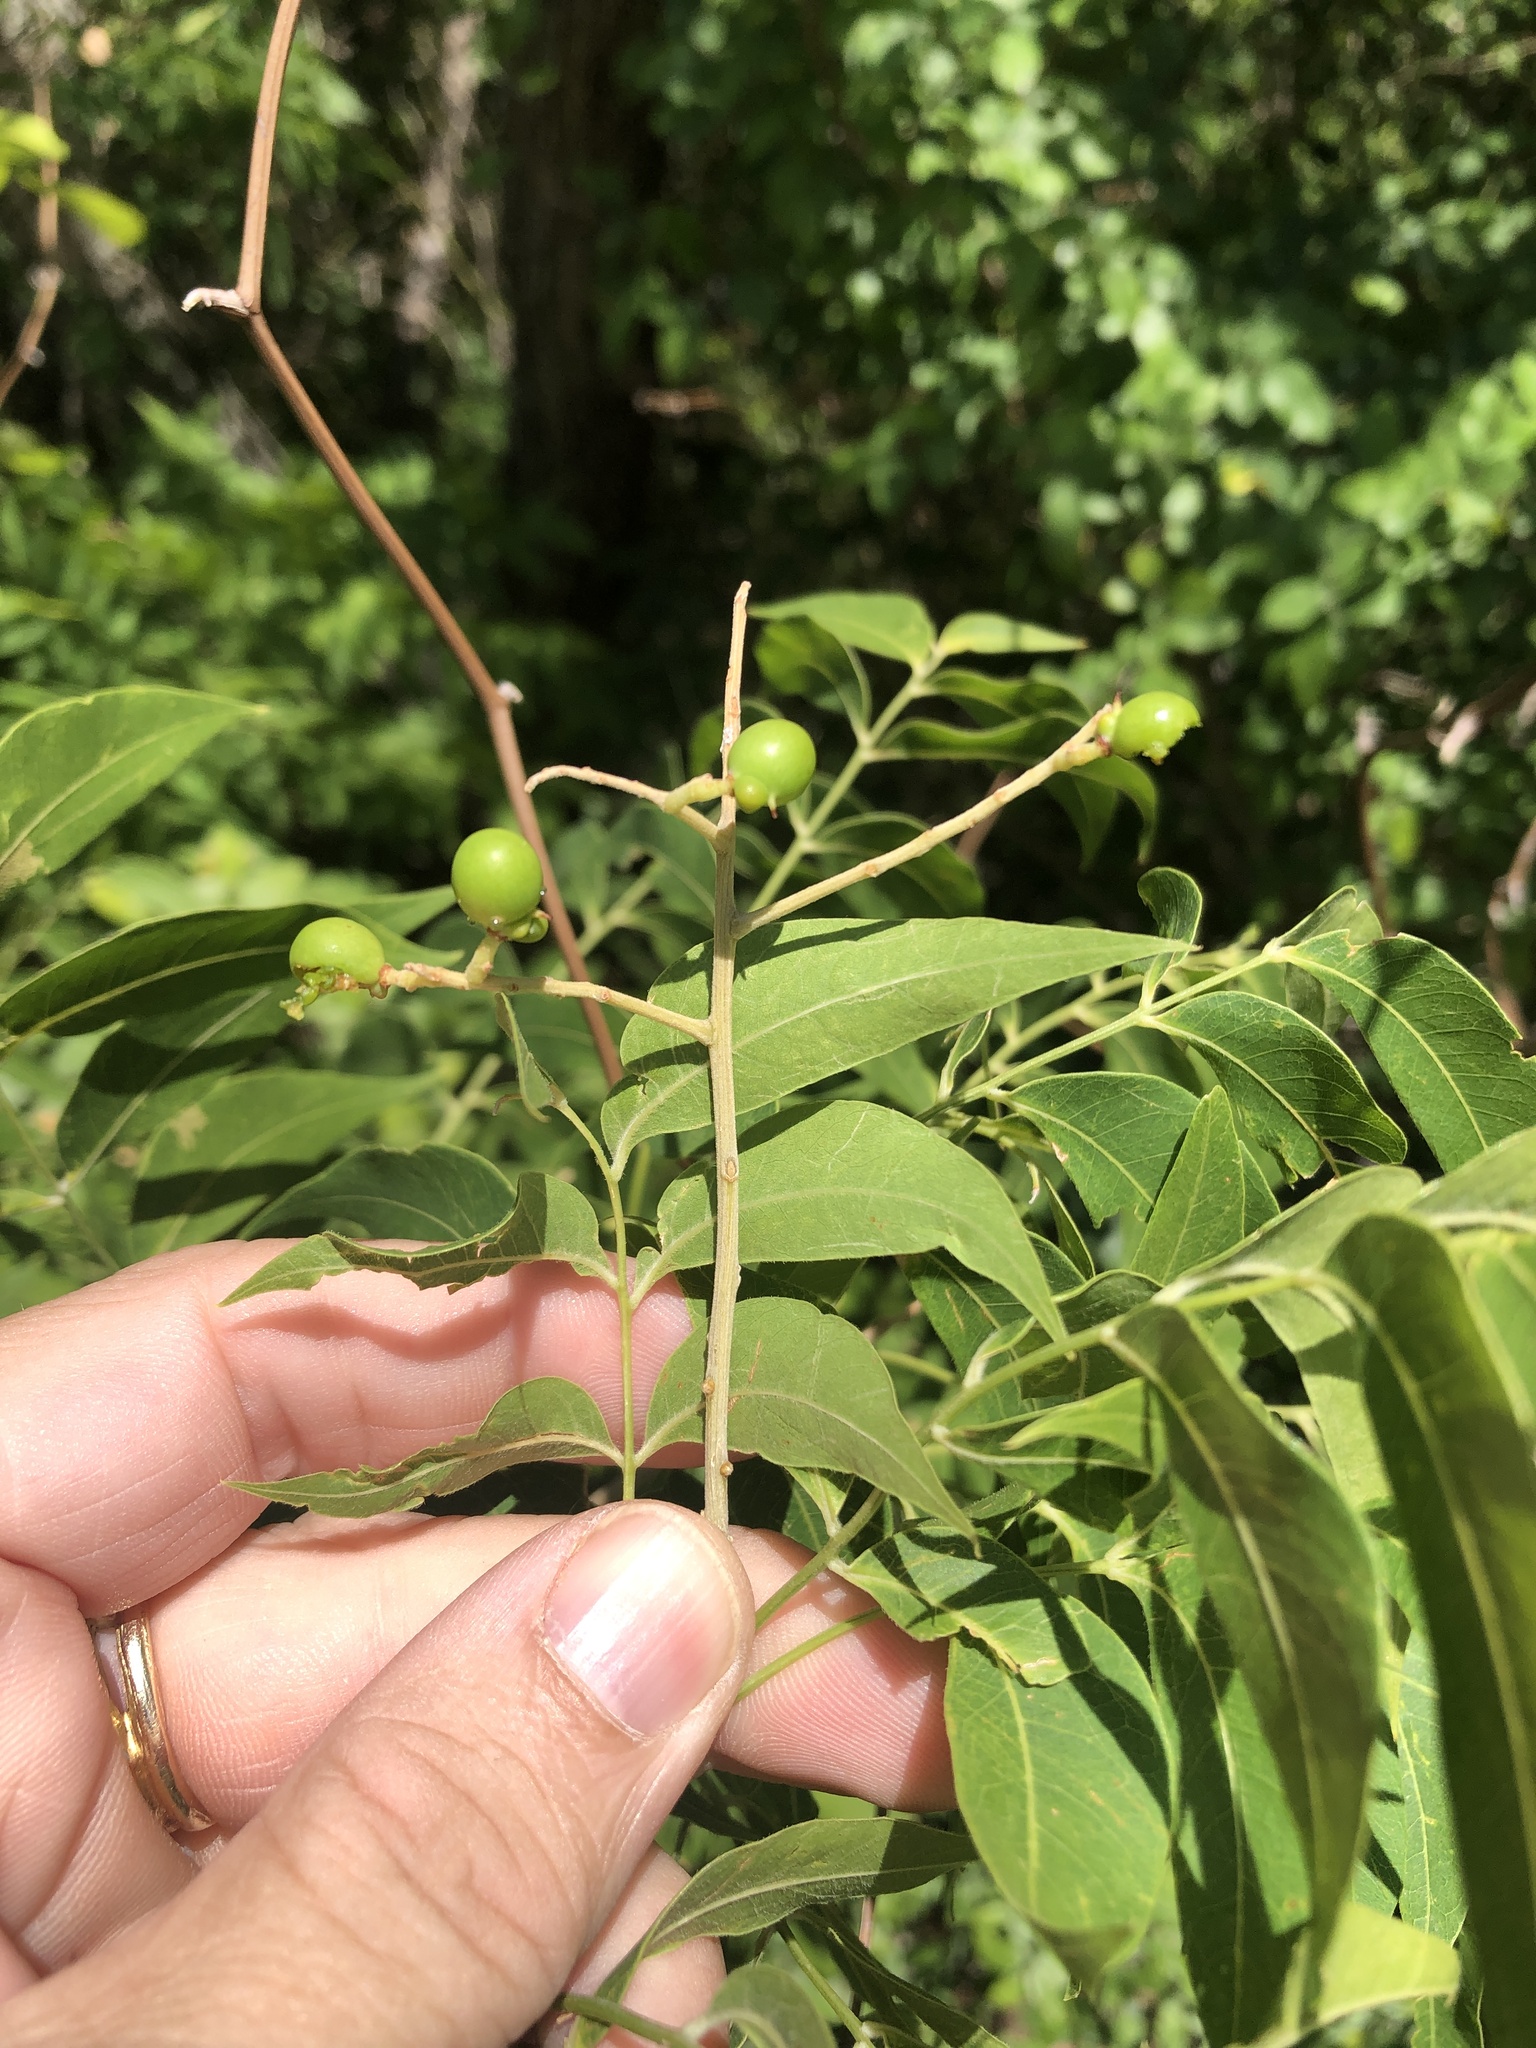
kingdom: Plantae
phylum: Tracheophyta
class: Magnoliopsida
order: Sapindales
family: Sapindaceae
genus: Sapindus
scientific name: Sapindus drummondii
